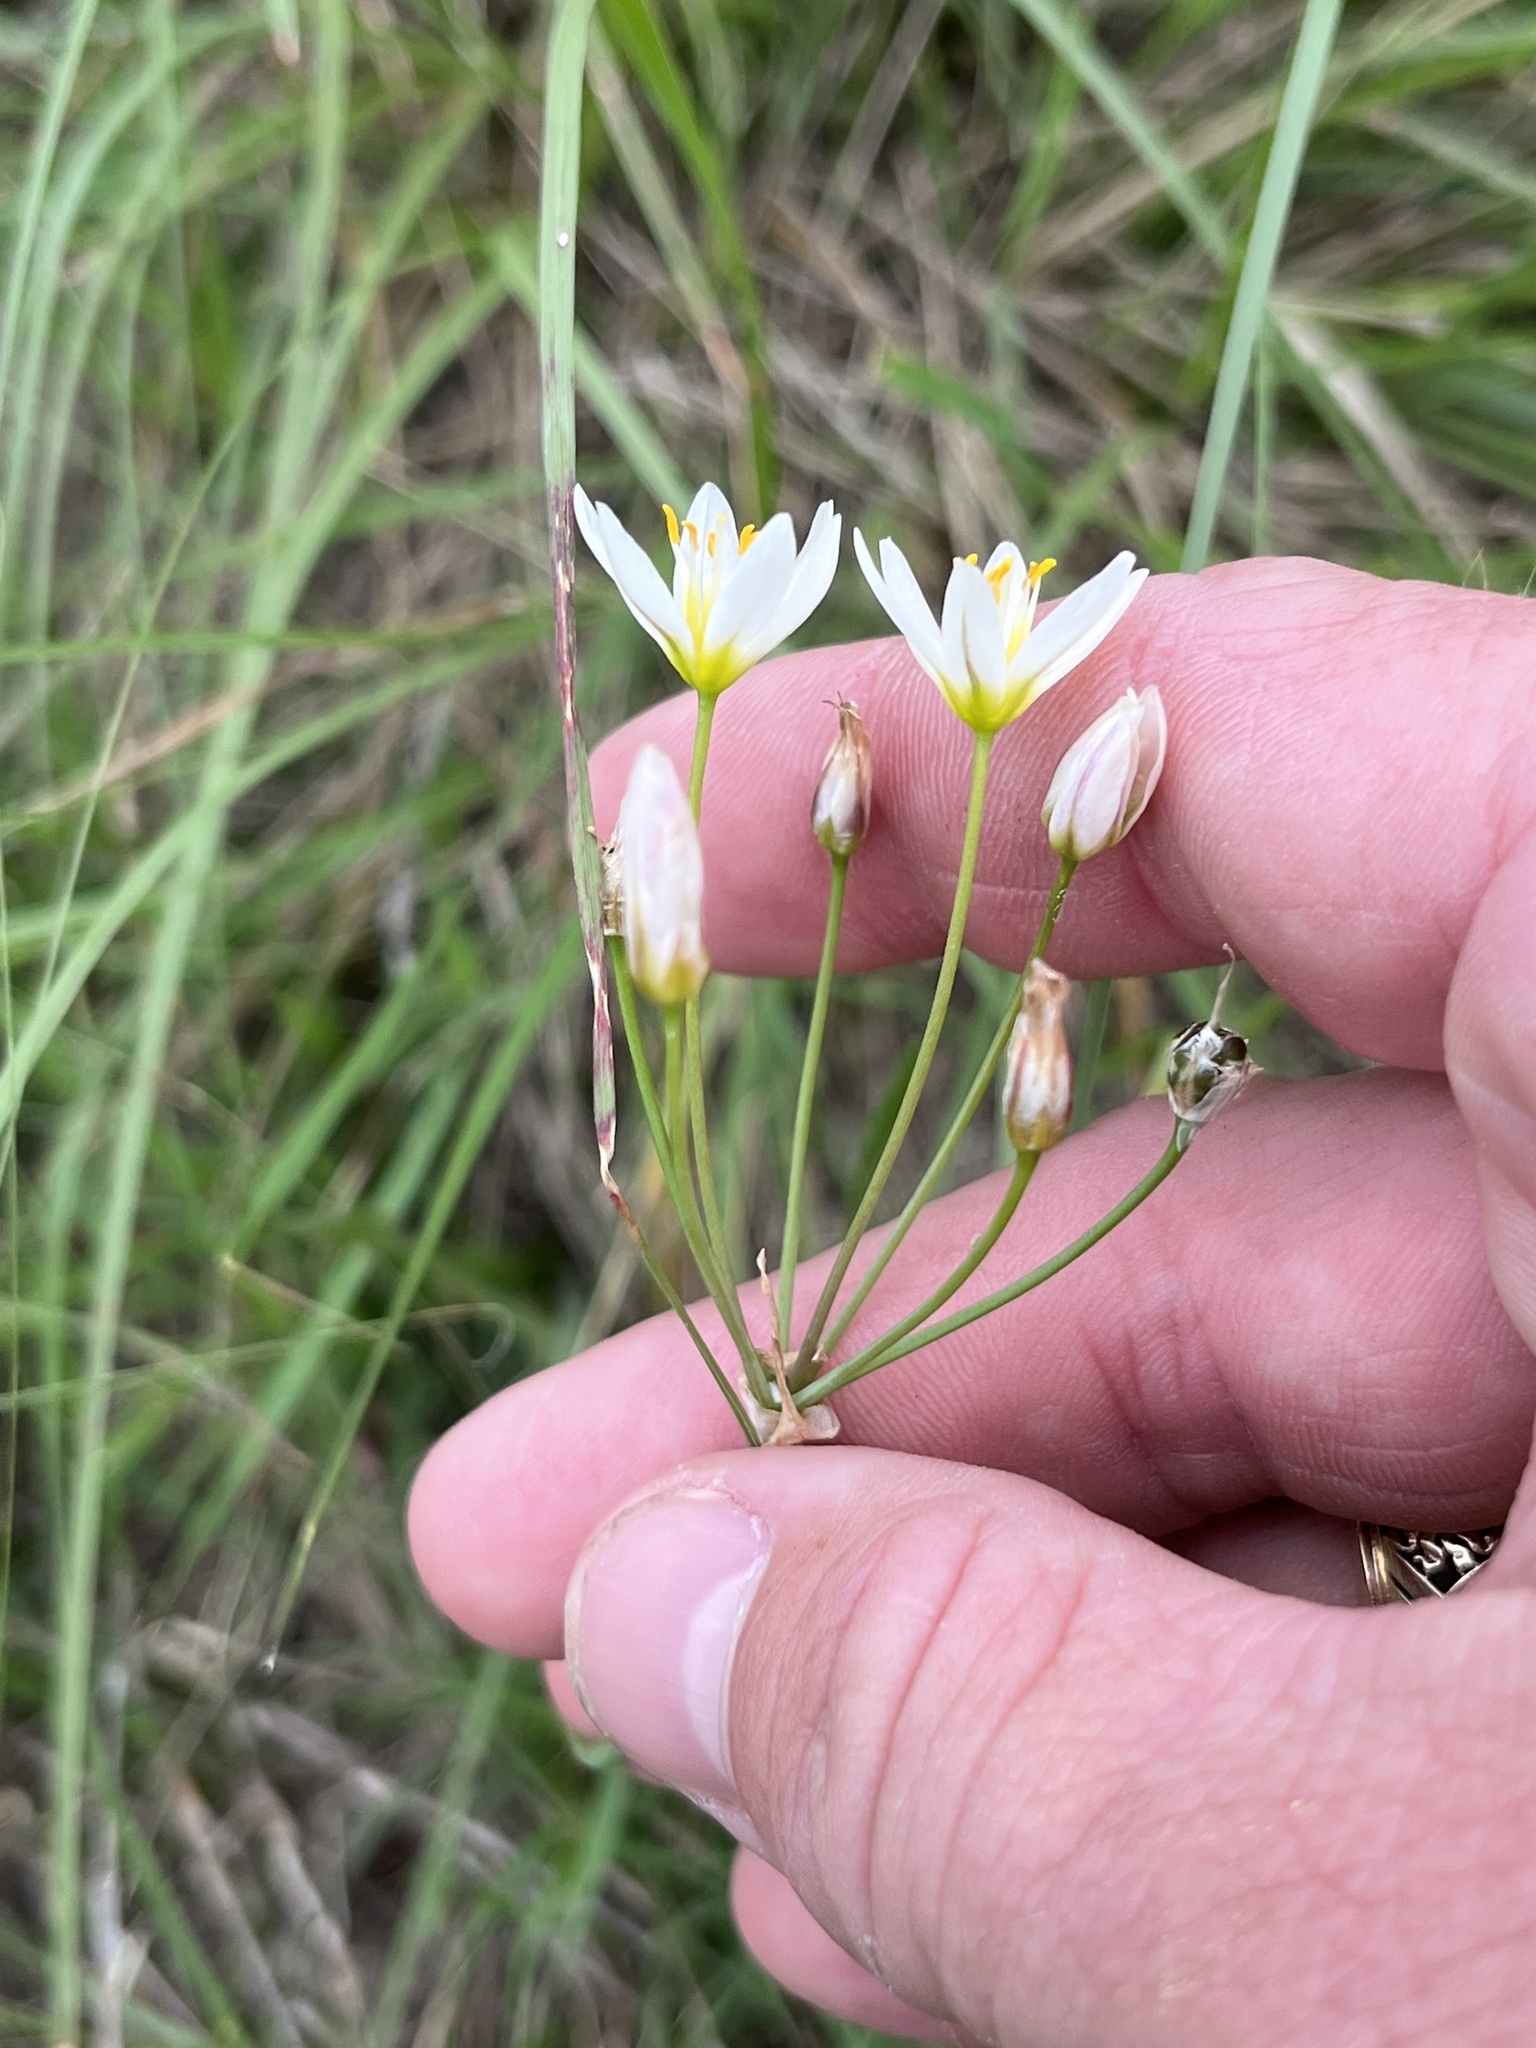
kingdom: Plantae
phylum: Tracheophyta
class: Liliopsida
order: Asparagales
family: Amaryllidaceae
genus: Nothoscordum
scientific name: Nothoscordum bivalve
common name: Crow-poison
